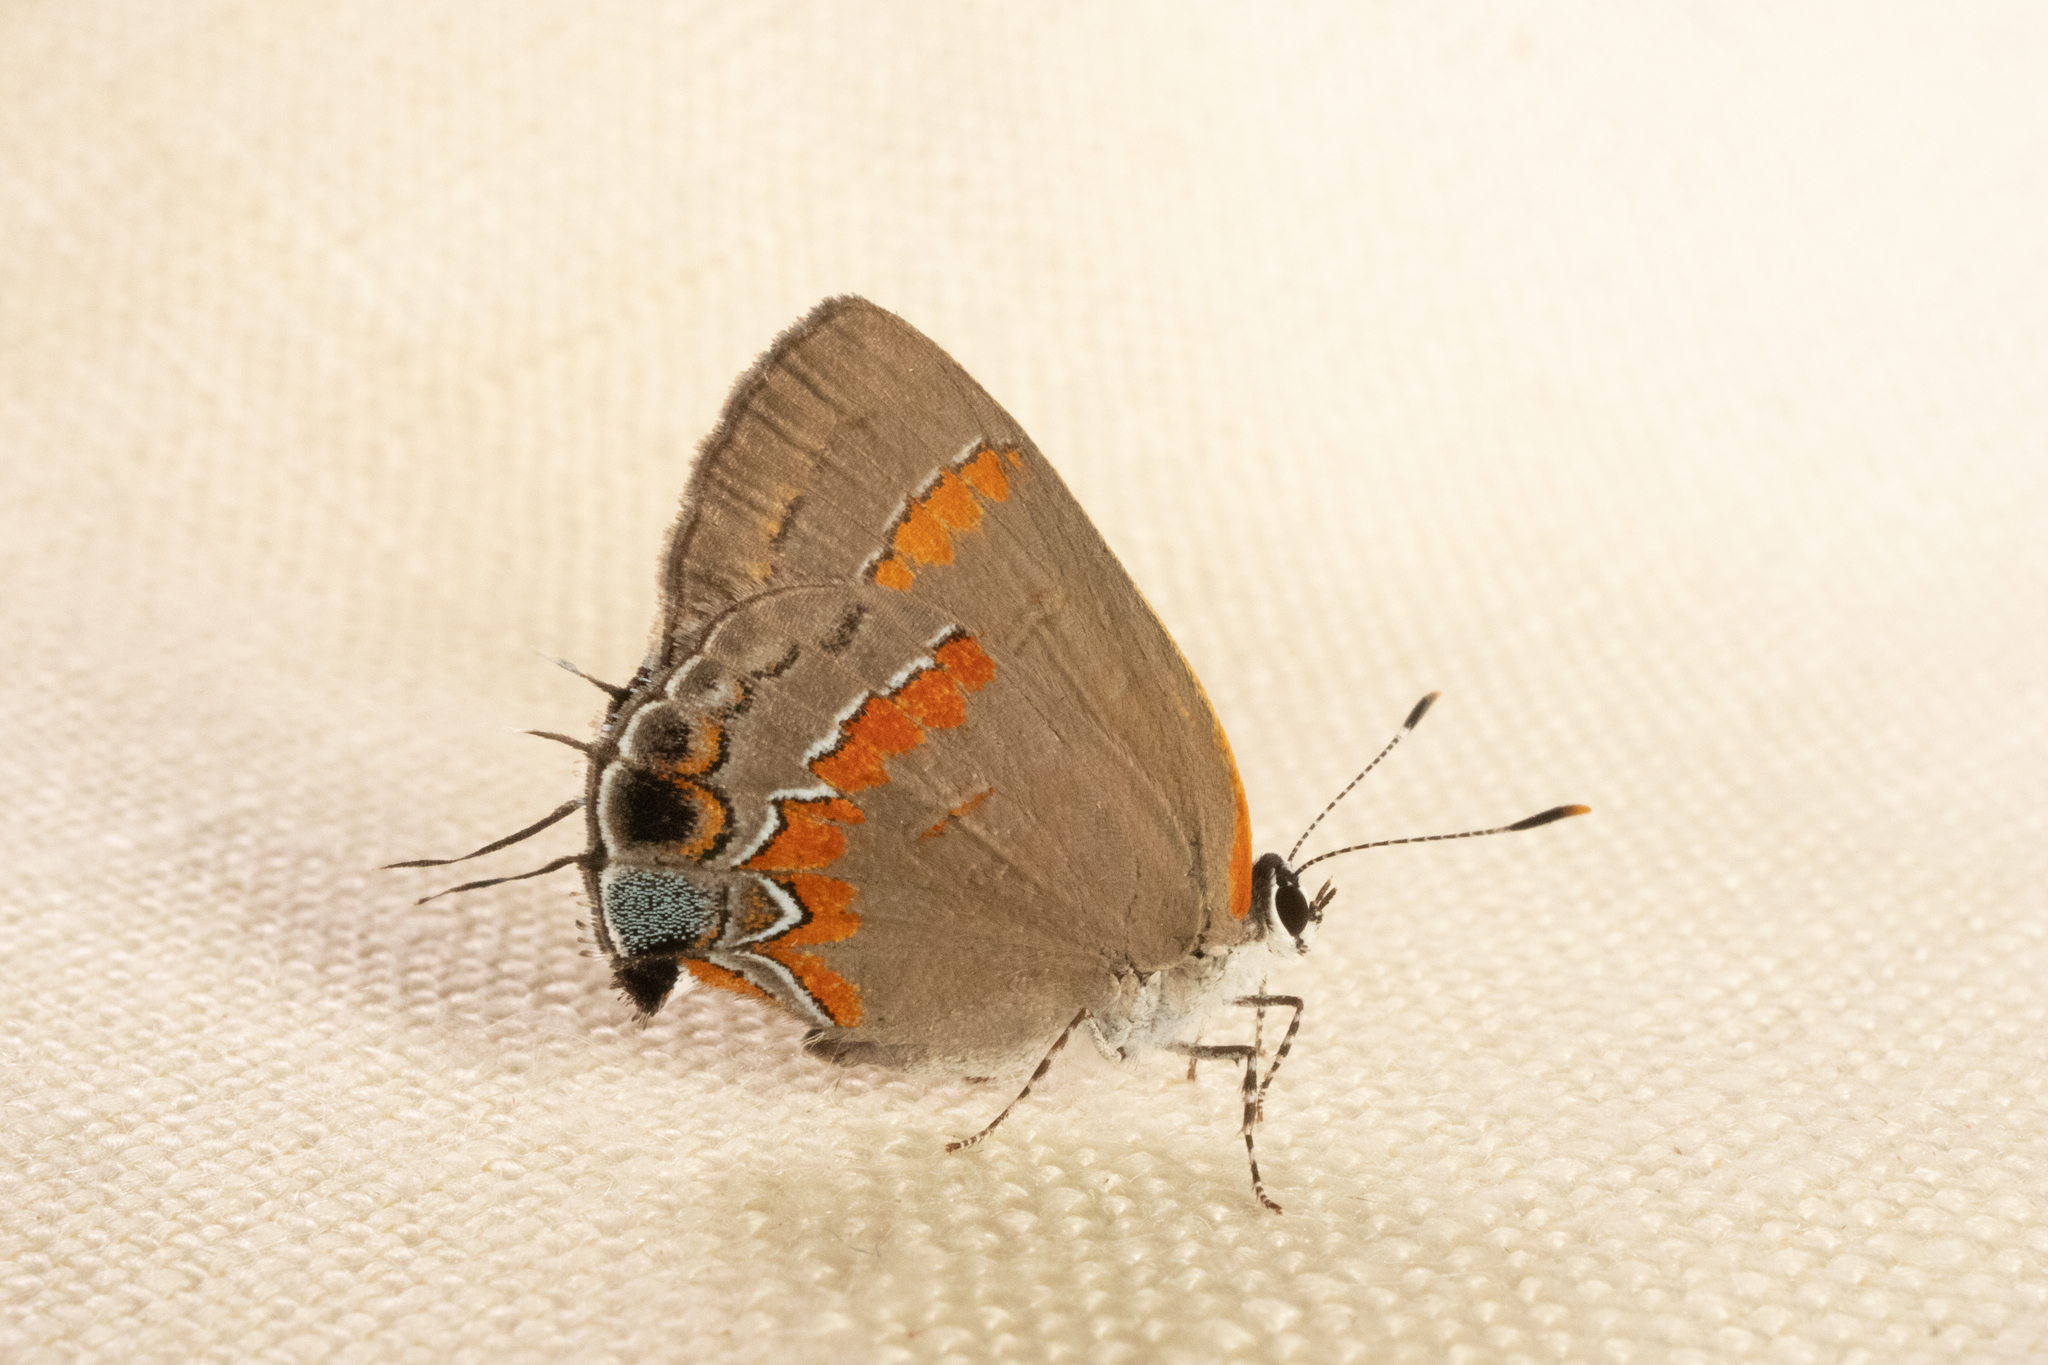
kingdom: Animalia
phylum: Arthropoda
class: Insecta
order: Lepidoptera
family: Lycaenidae
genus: Calycopis
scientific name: Calycopis cecrops
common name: Red-banded hairstreak
